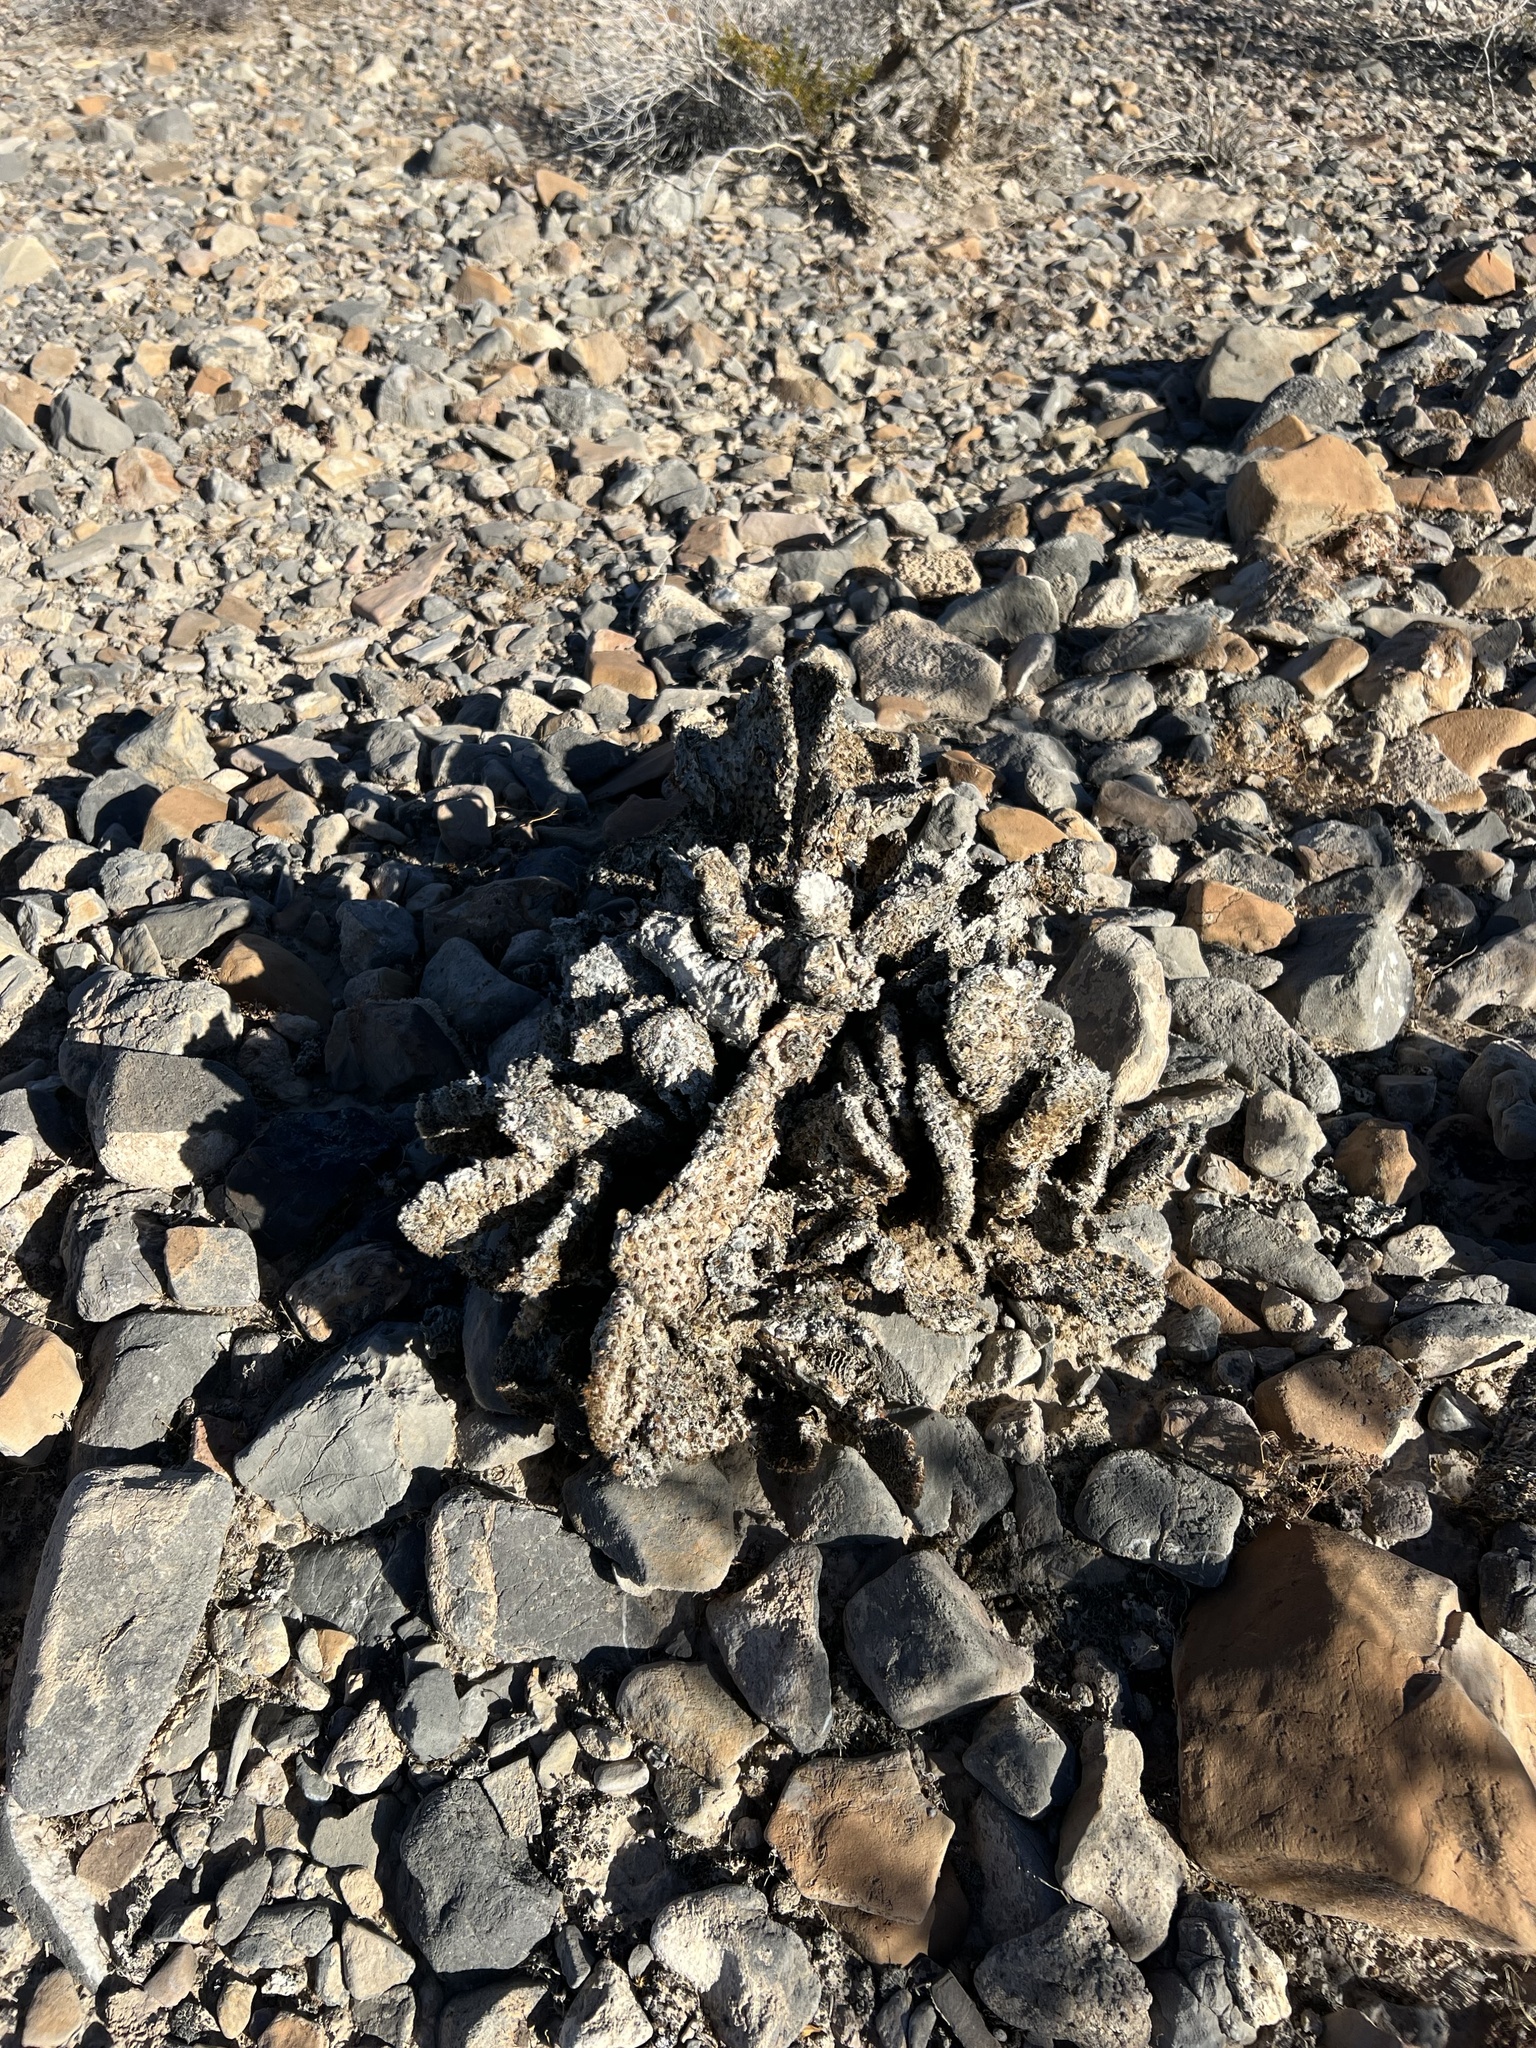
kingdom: Plantae
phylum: Tracheophyta
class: Magnoliopsida
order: Caryophyllales
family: Cactaceae
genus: Opuntia
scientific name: Opuntia basilaris
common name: Beavertail prickly-pear
